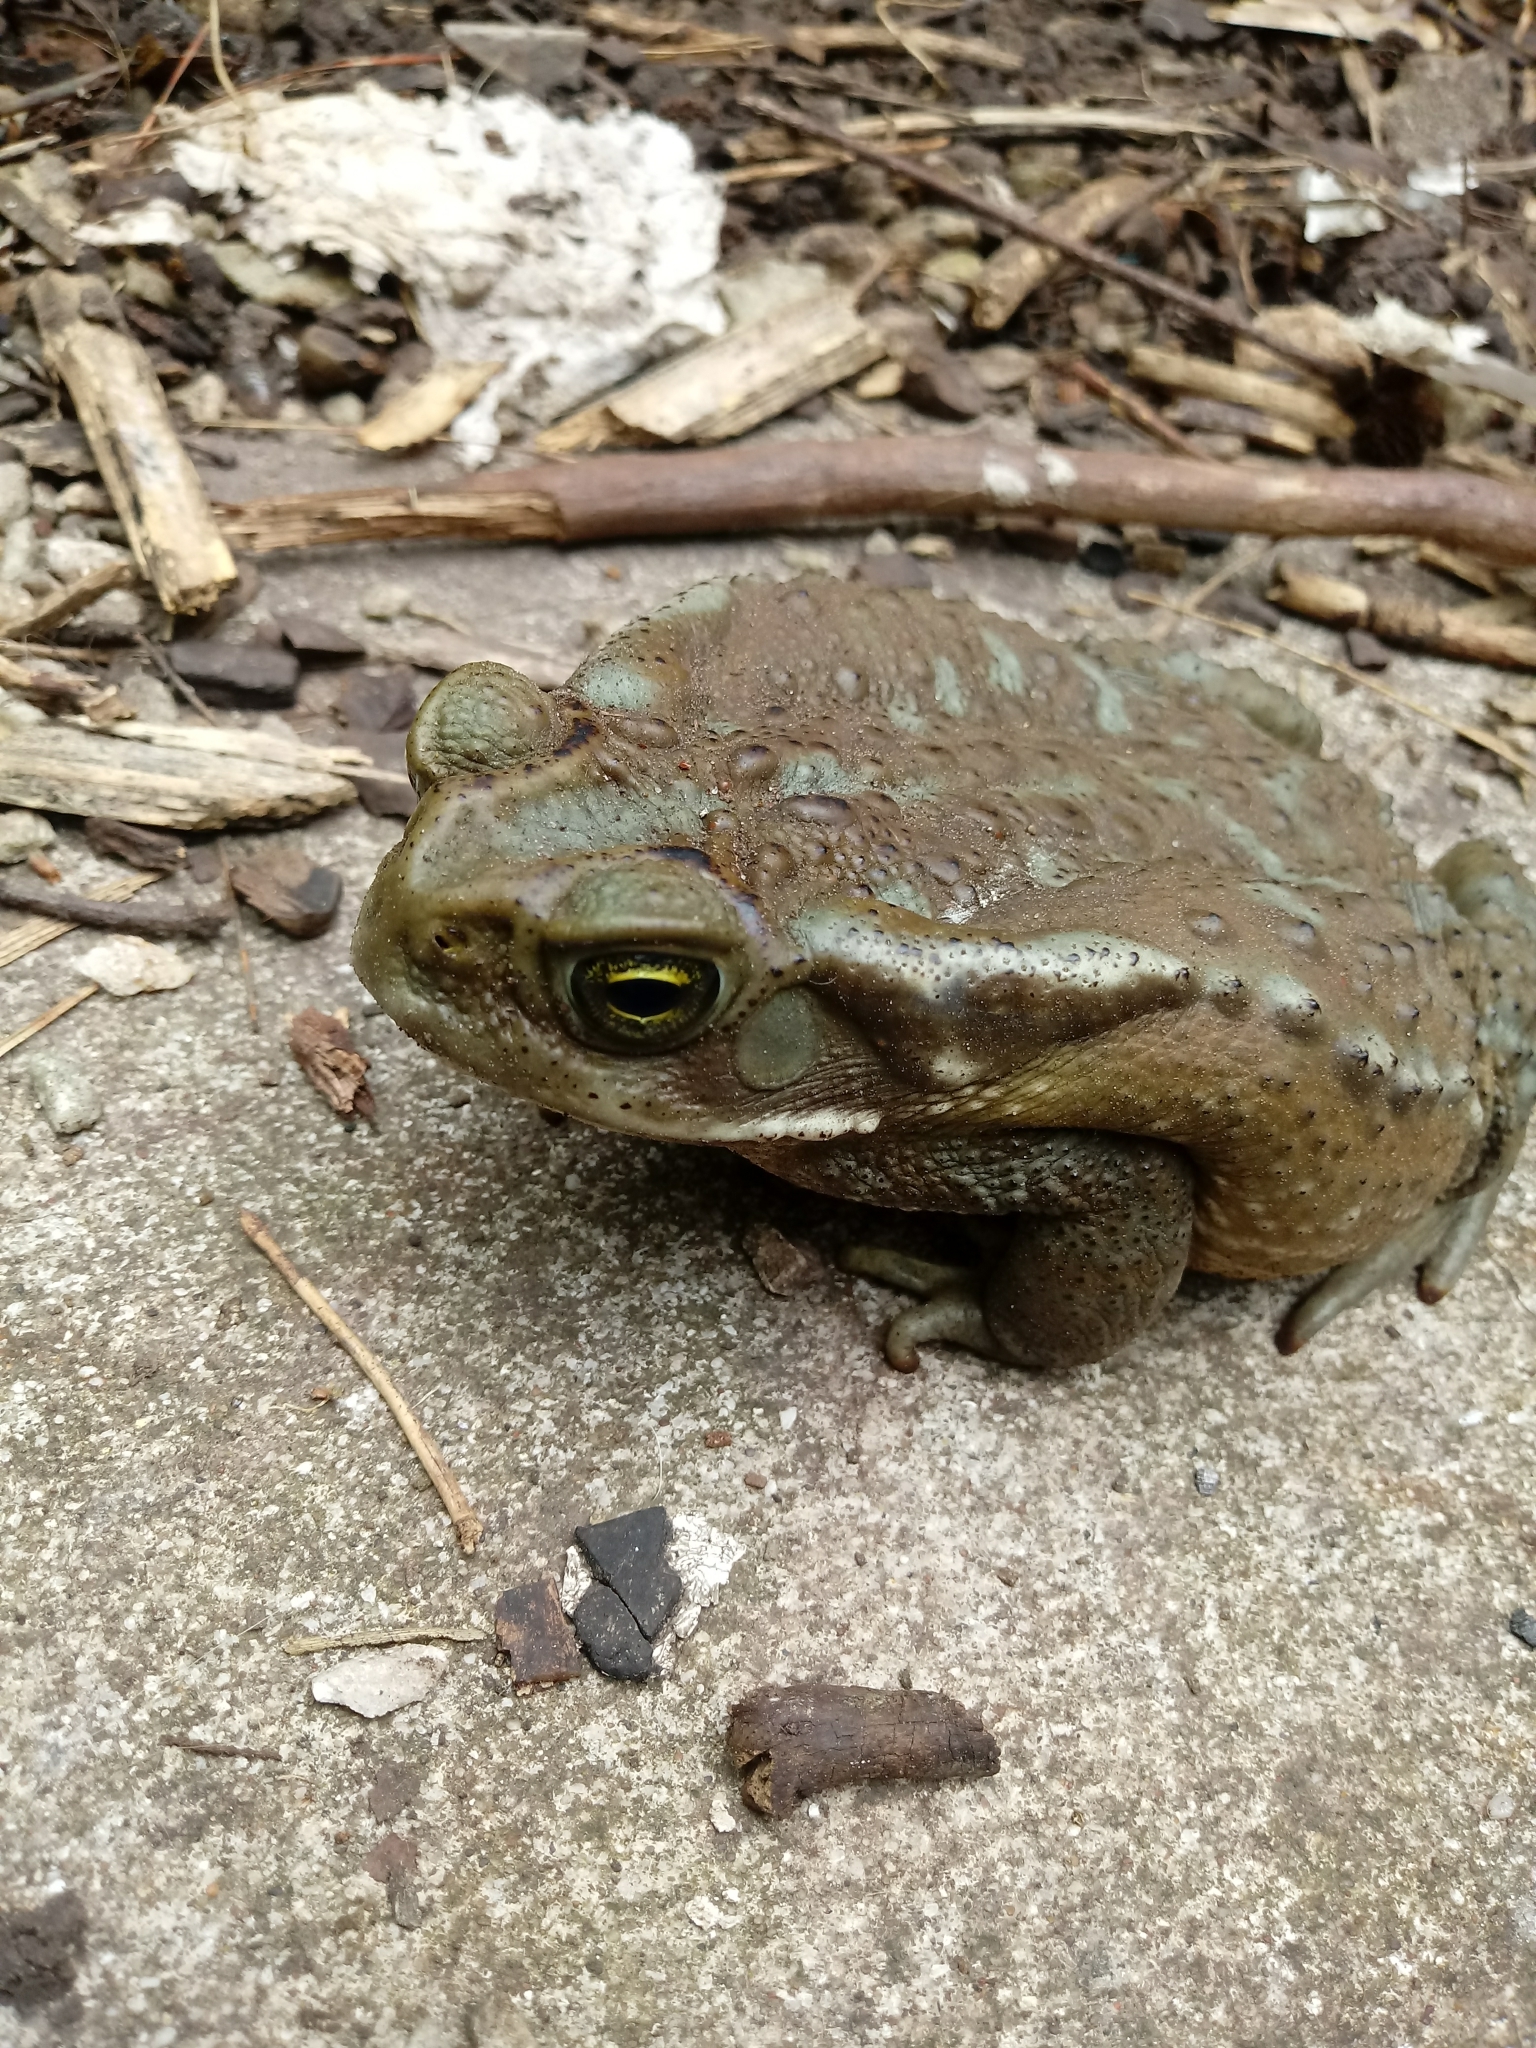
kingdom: Animalia
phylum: Chordata
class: Amphibia
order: Anura
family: Bufonidae
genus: Rhinella
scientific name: Rhinella arenarum
